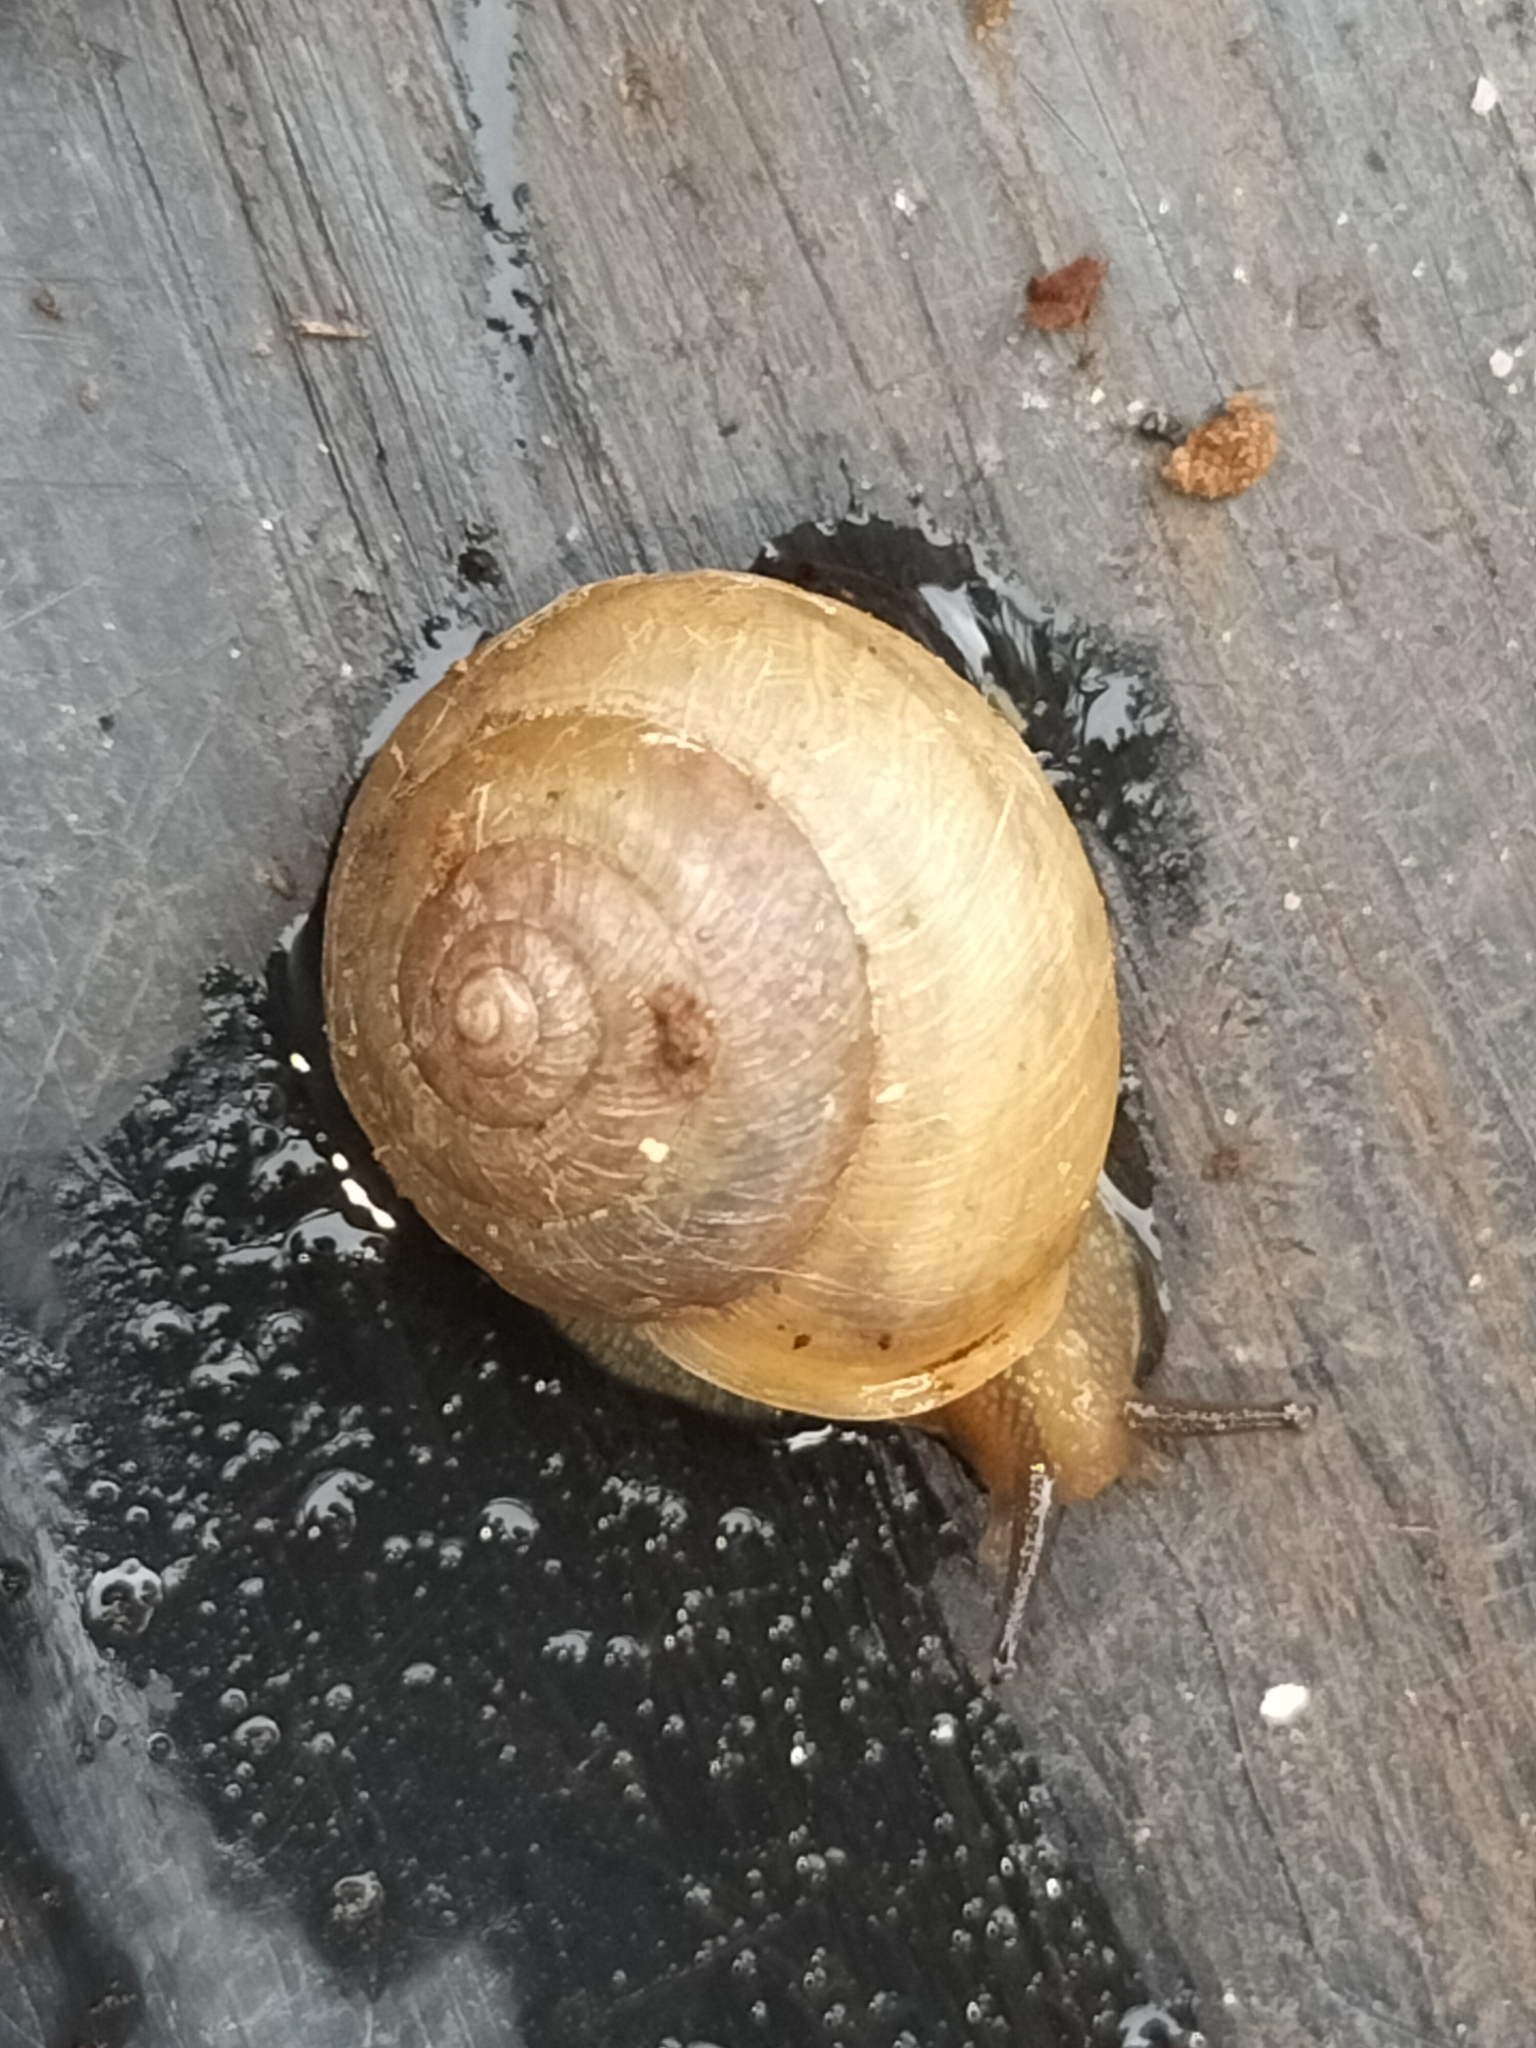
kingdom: Animalia
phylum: Mollusca
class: Gastropoda
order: Stylommatophora
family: Camaenidae
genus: Bradybaena
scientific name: Bradybaena similaris
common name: Asian trampsnail
